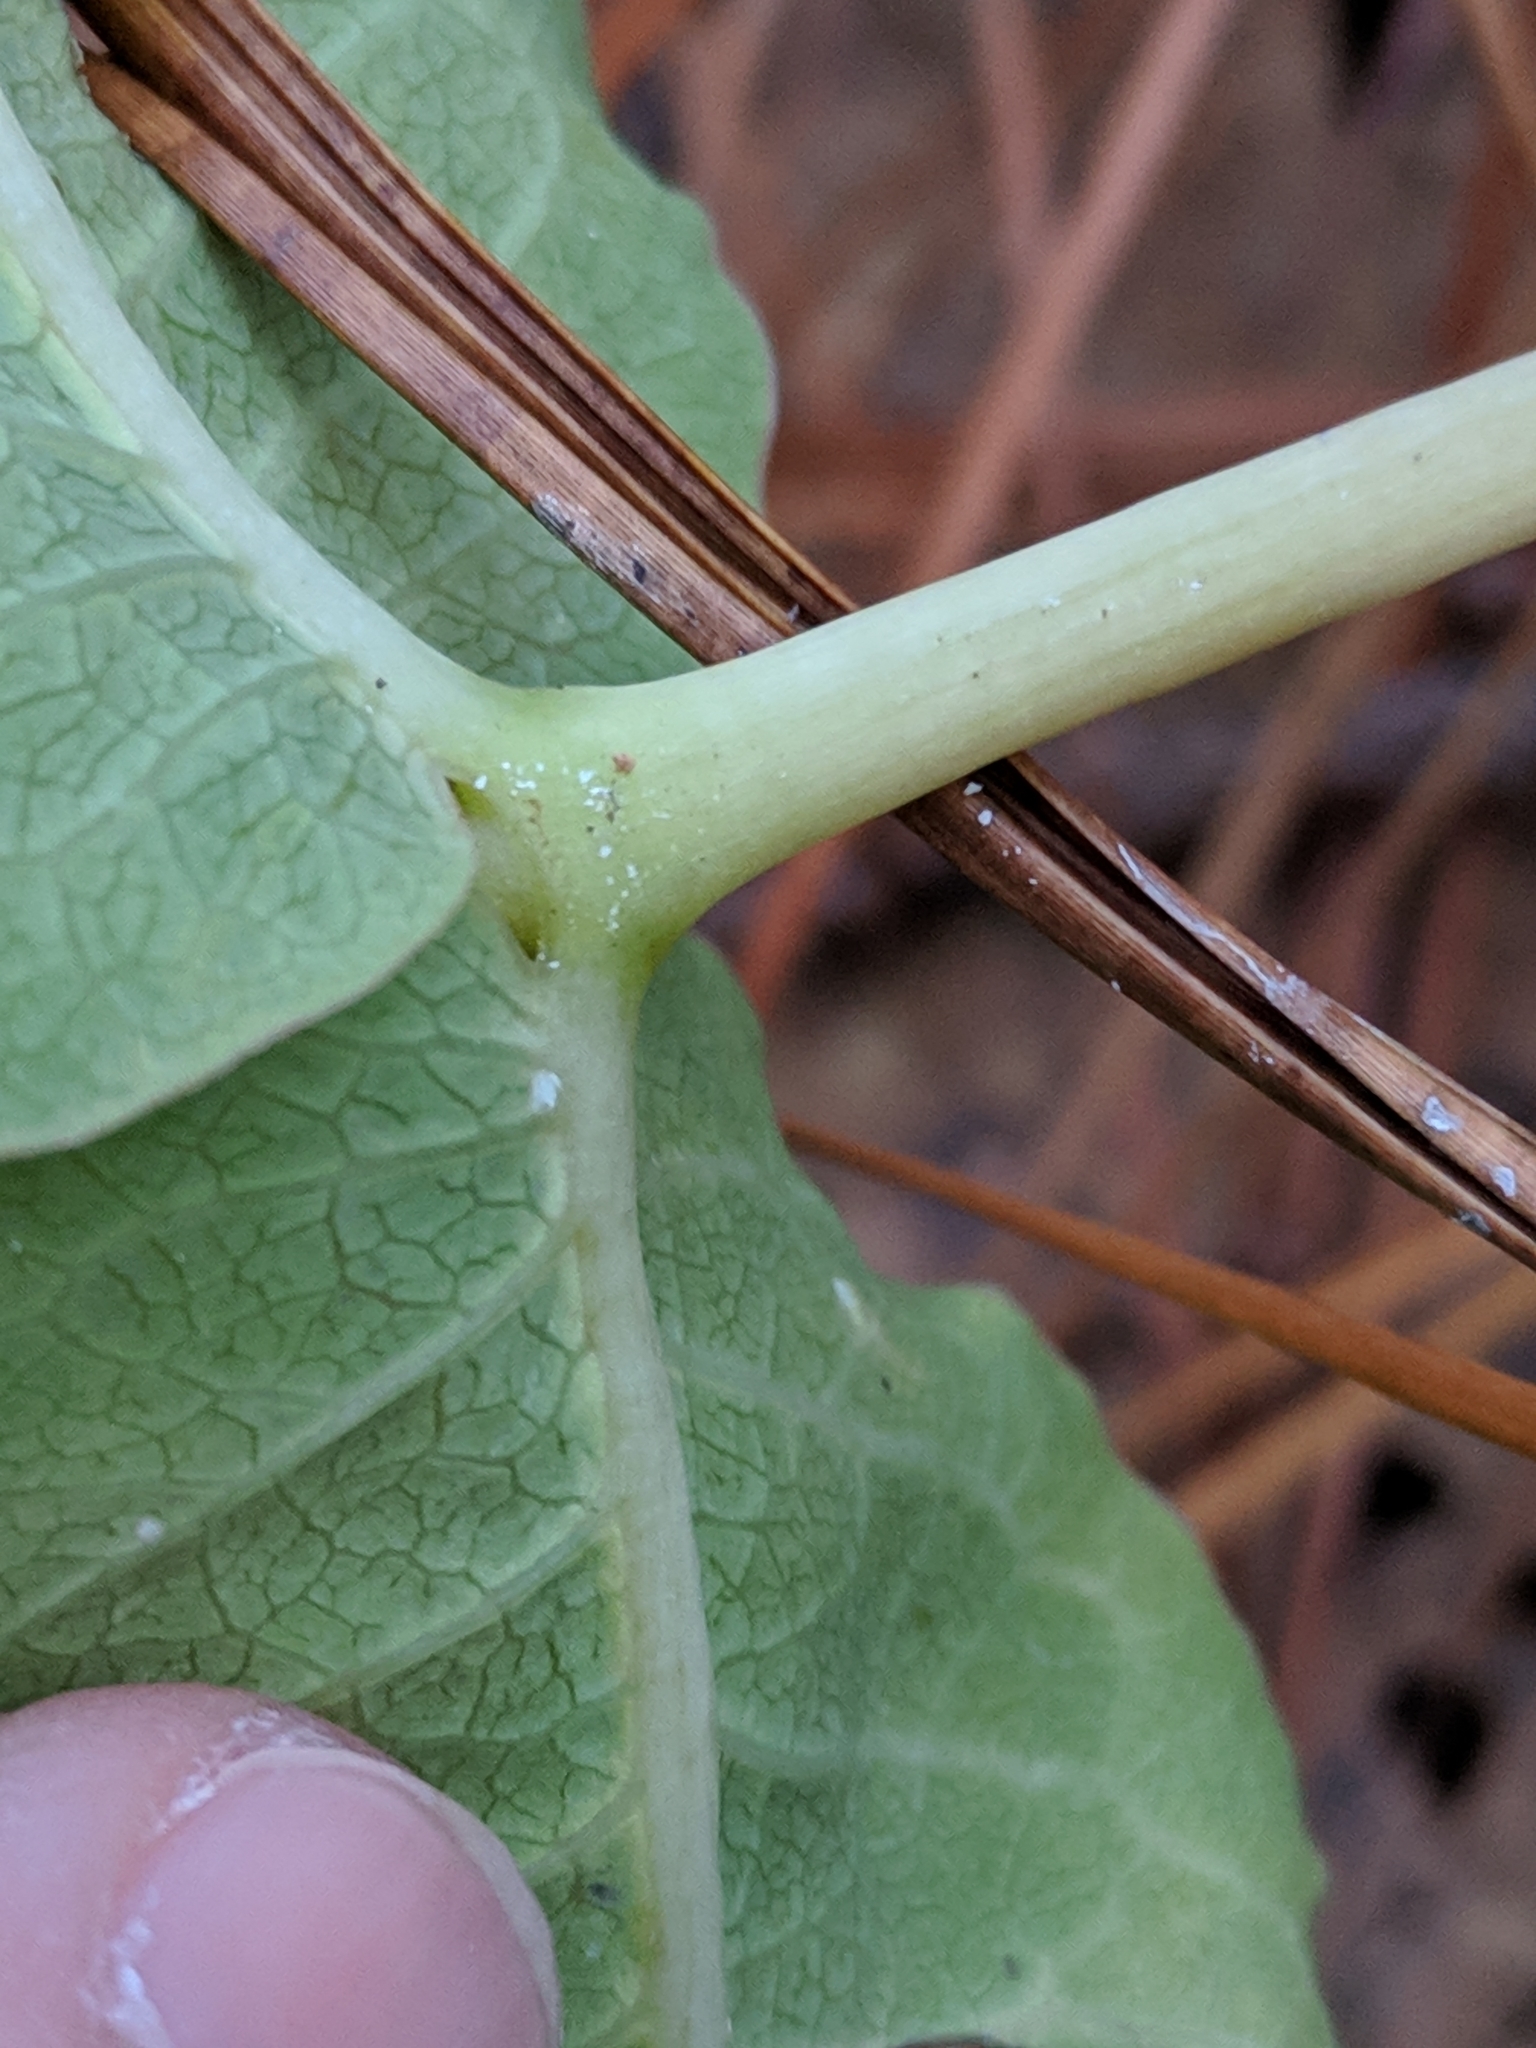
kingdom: Plantae
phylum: Tracheophyta
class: Magnoliopsida
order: Gentianales
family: Apocynaceae
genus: Asclepias
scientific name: Asclepias amplexicaulis
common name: Blunt-leaf milkweed
